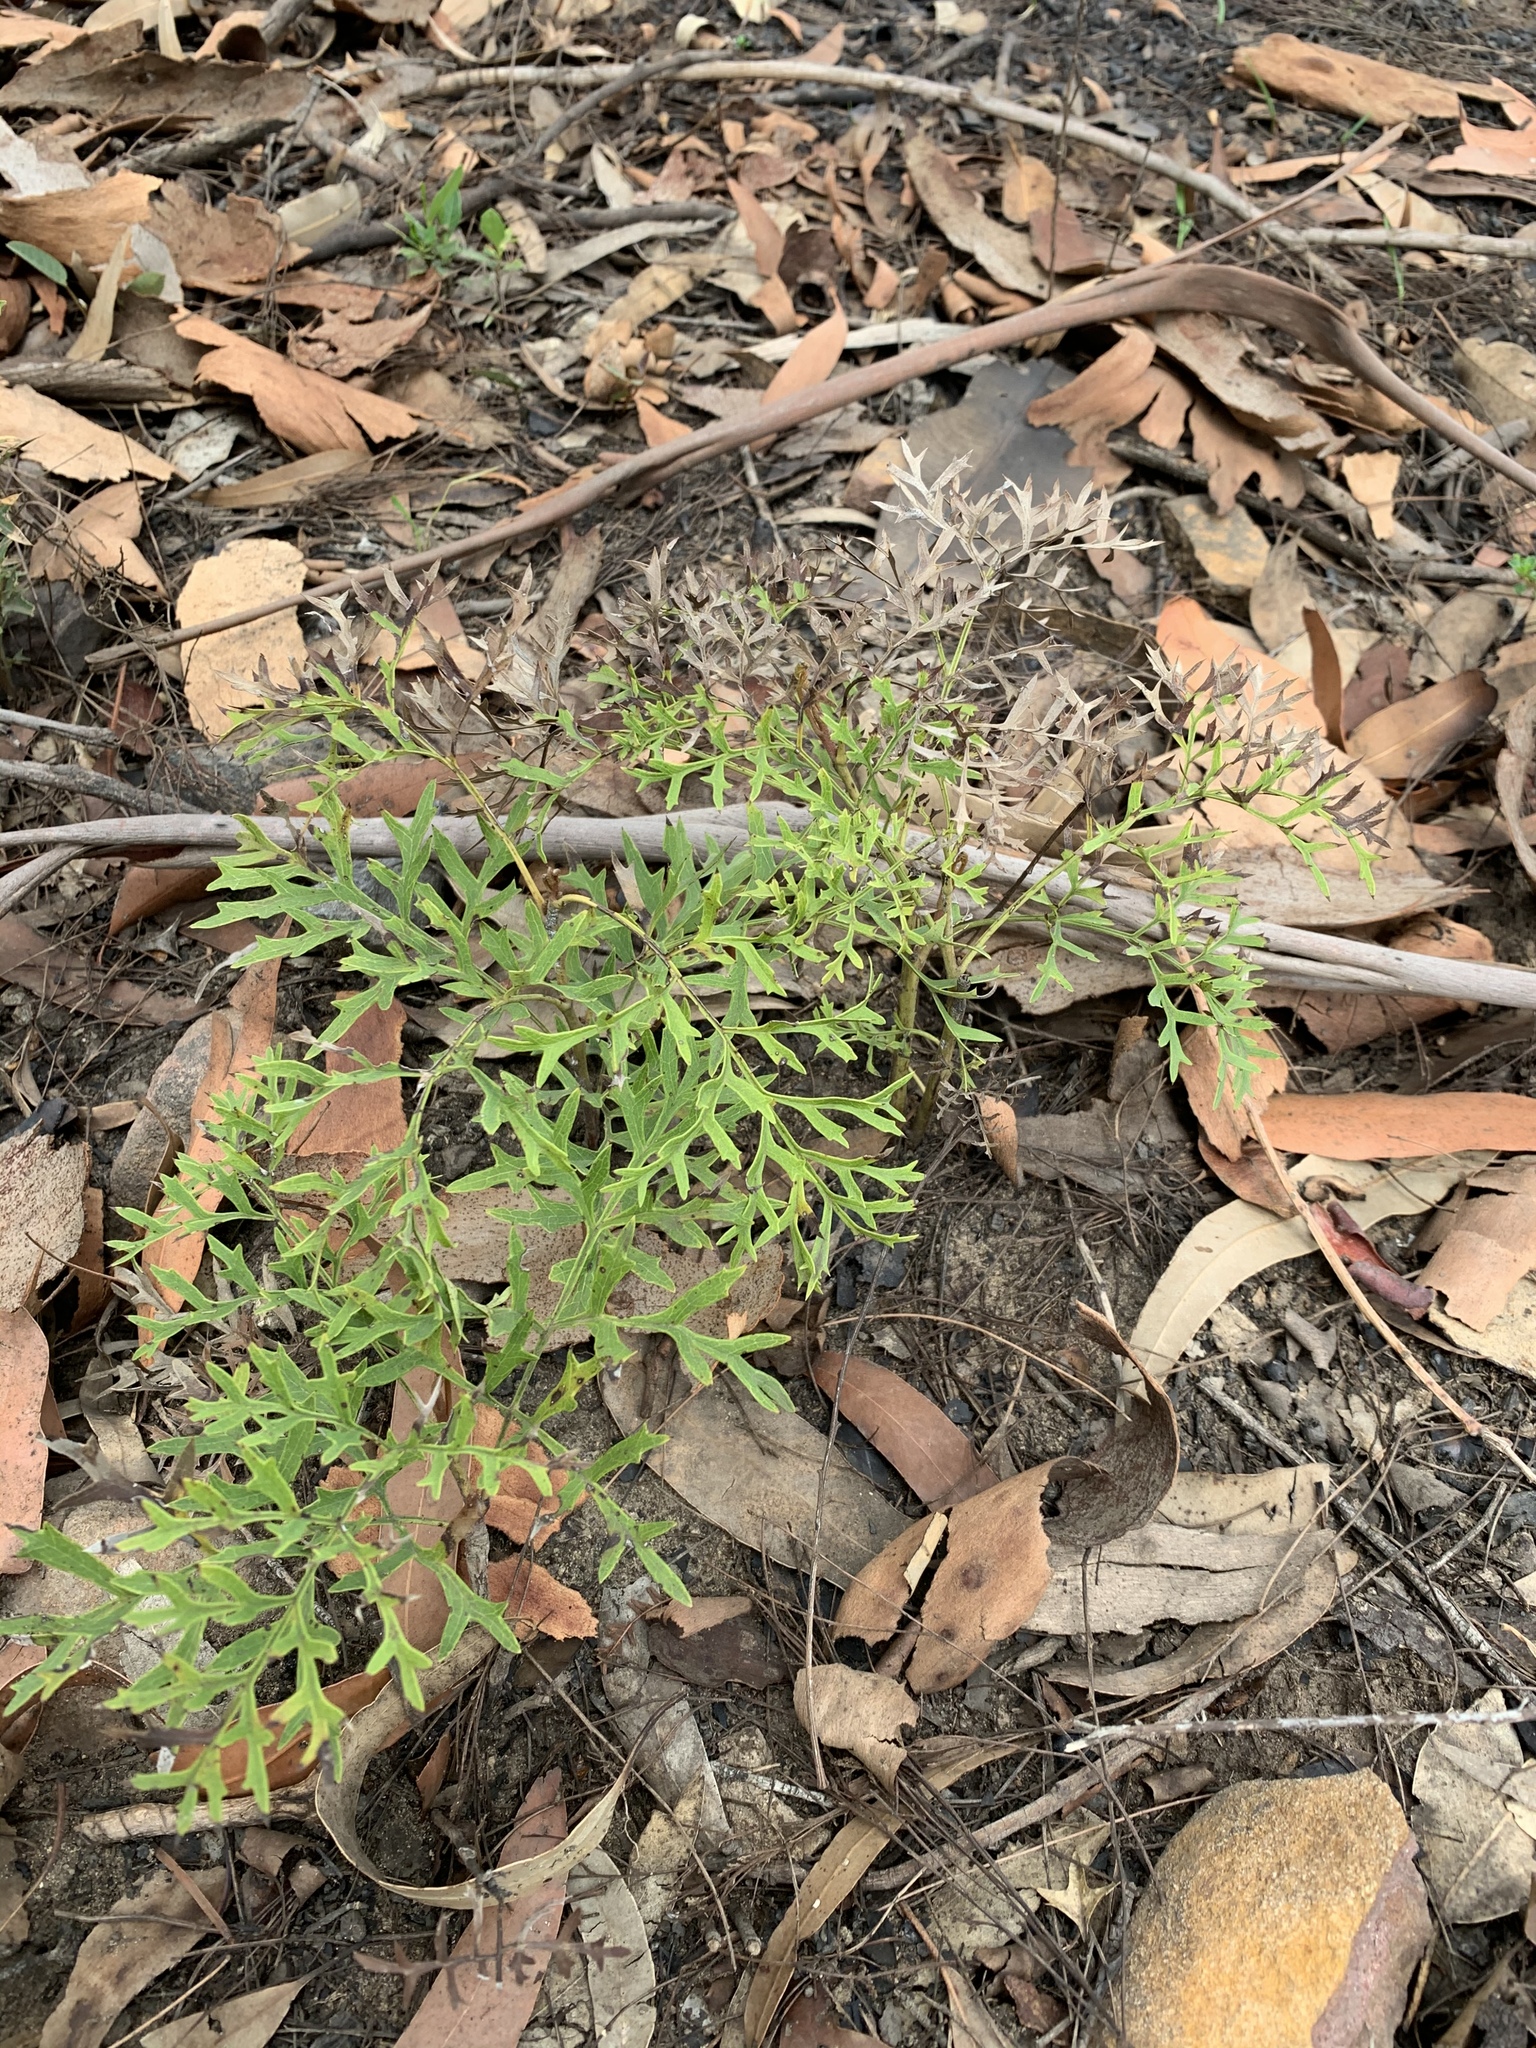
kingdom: Plantae
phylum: Tracheophyta
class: Magnoliopsida
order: Proteales
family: Proteaceae
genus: Lomatia
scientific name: Lomatia silaifolia
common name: Crinklebush
